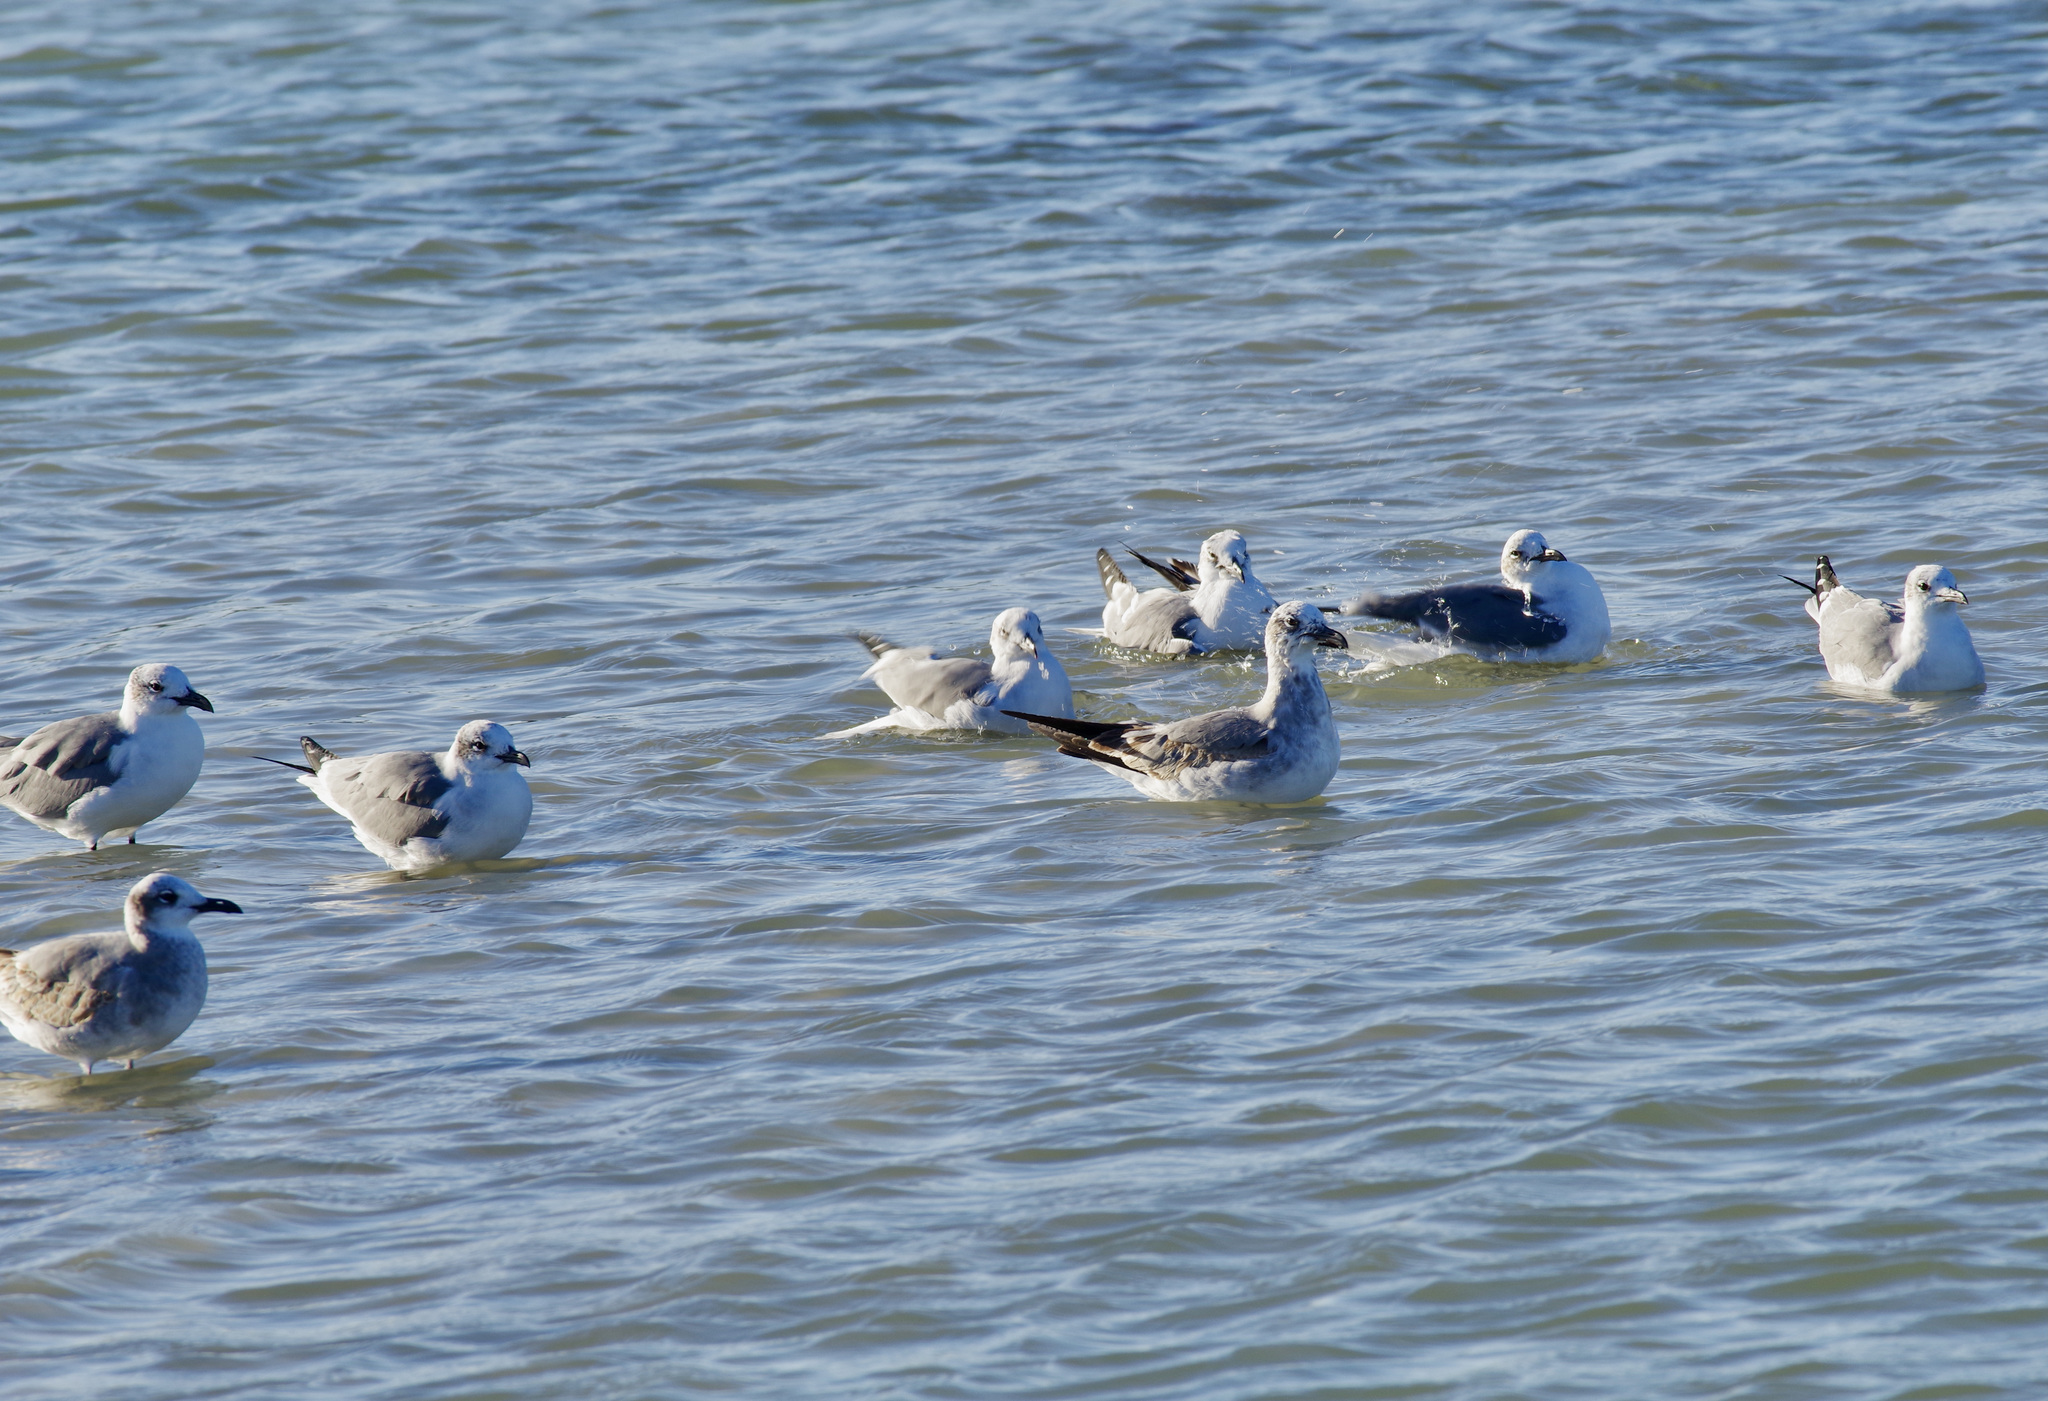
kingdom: Animalia
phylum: Chordata
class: Aves
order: Charadriiformes
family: Laridae
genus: Leucophaeus
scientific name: Leucophaeus atricilla
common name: Laughing gull
